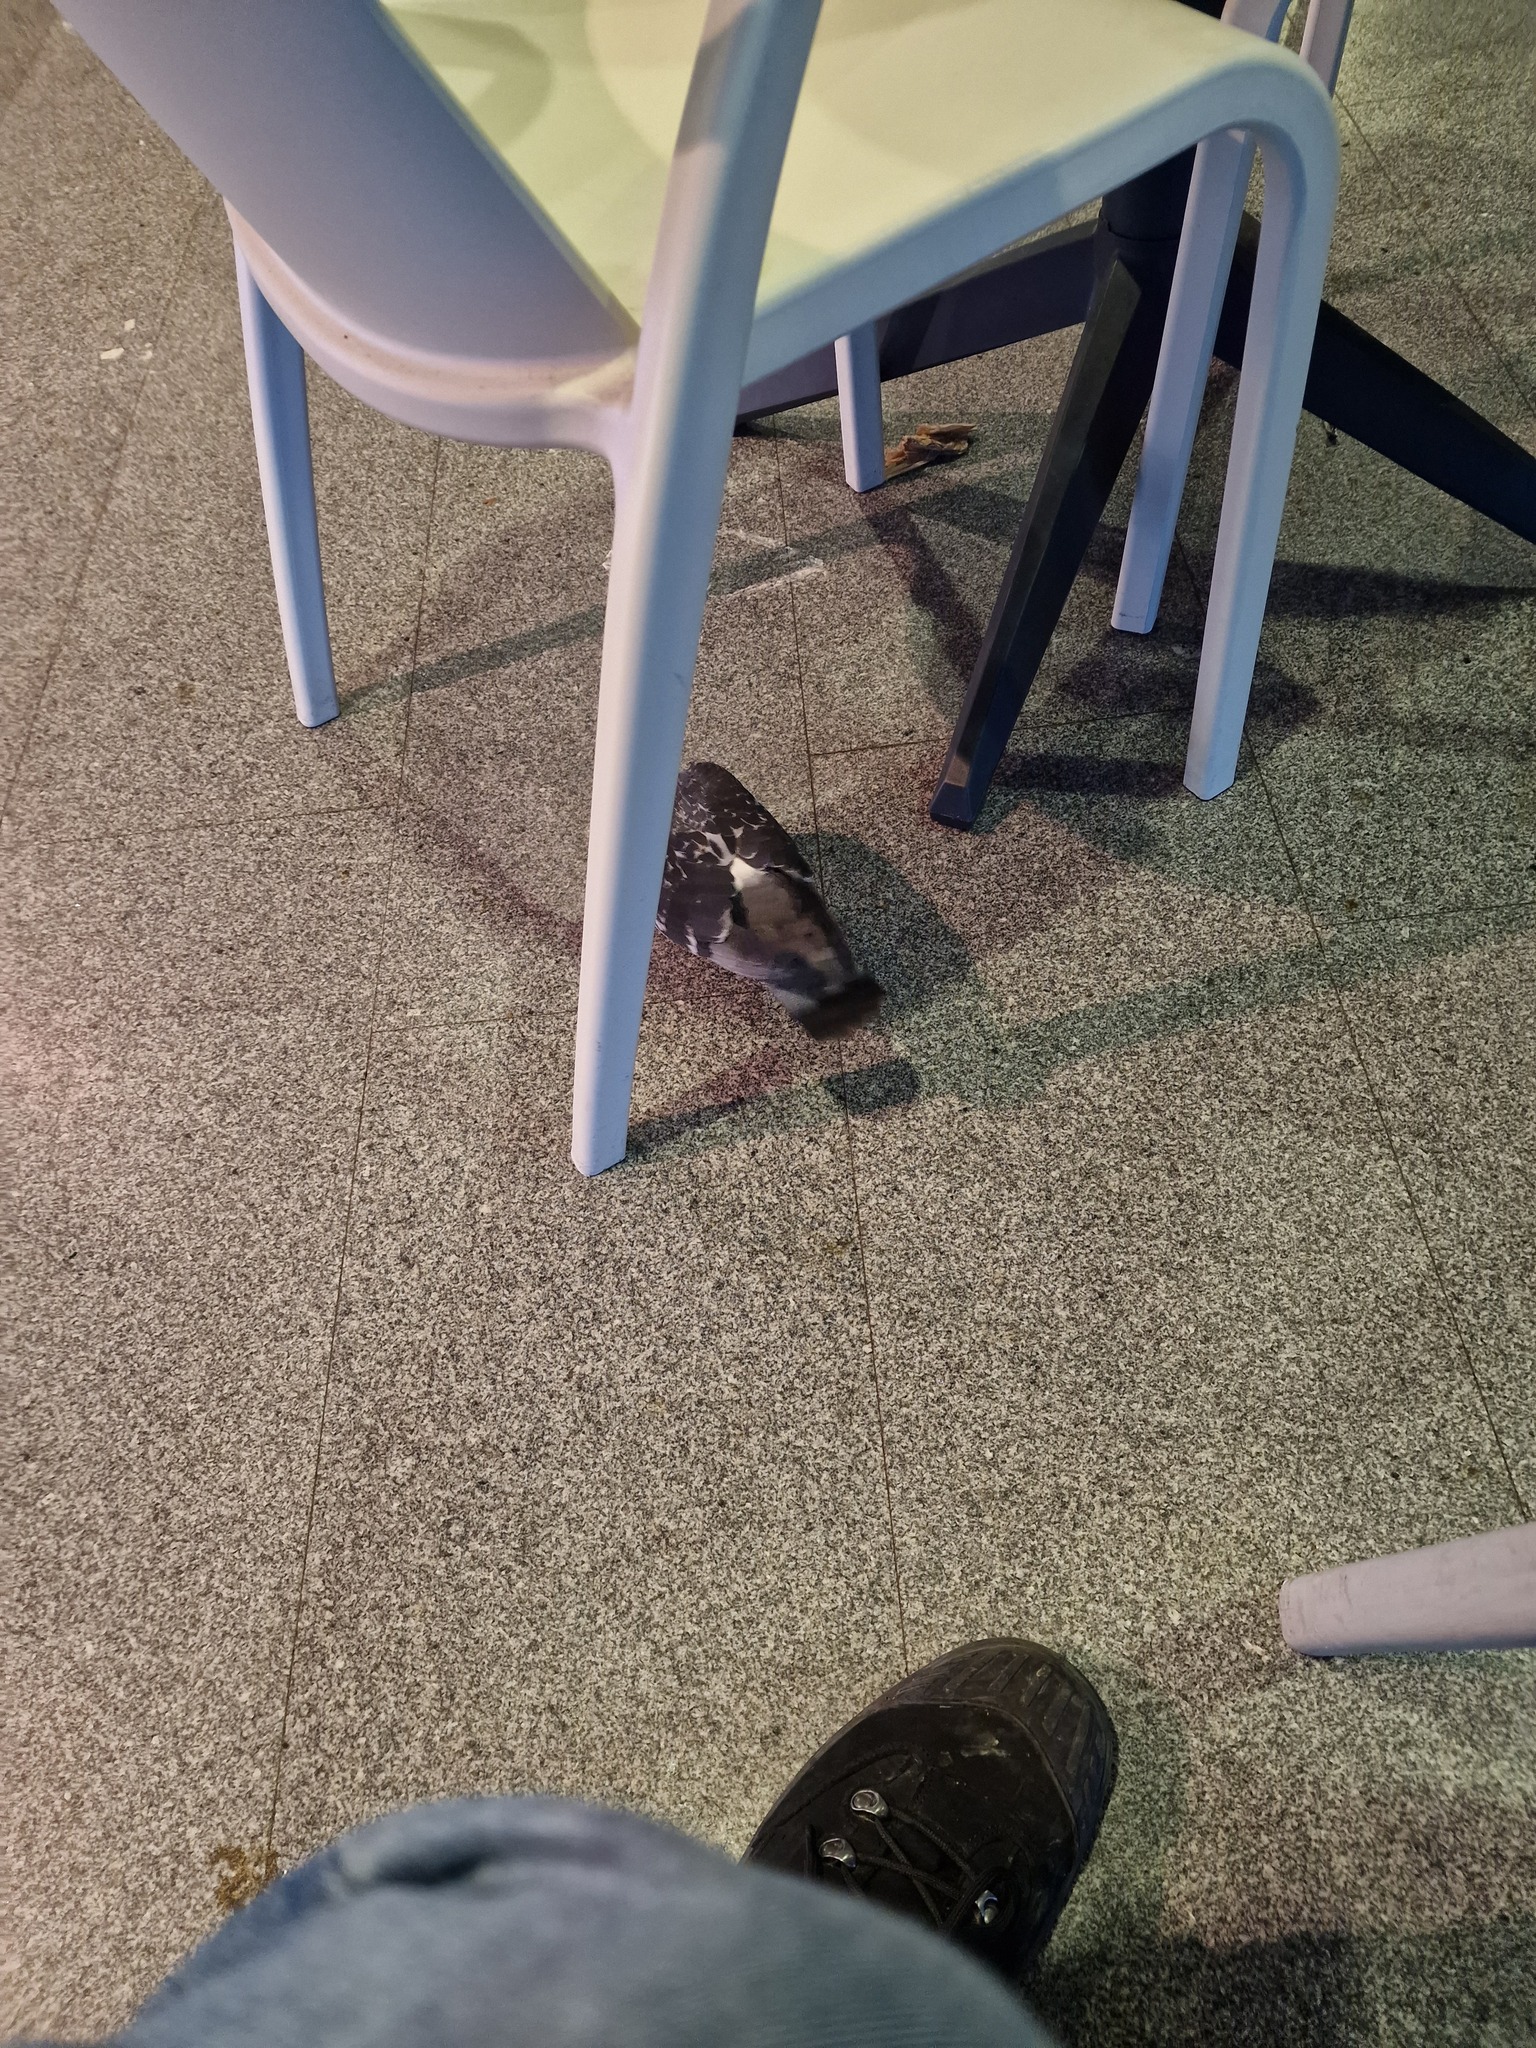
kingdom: Animalia
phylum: Chordata
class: Aves
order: Columbiformes
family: Columbidae
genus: Columba
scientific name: Columba livia
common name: Rock pigeon
